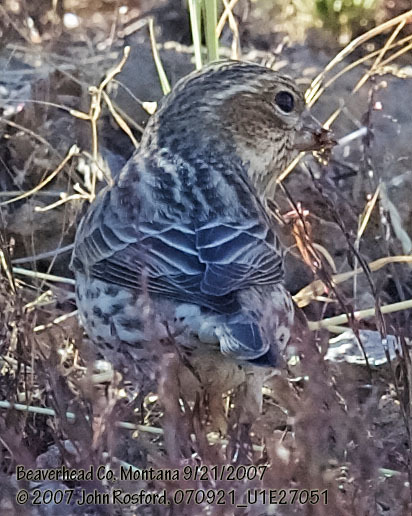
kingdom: Animalia
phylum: Chordata
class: Aves
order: Passeriformes
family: Fringillidae
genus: Haemorhous
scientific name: Haemorhous cassinii
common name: Cassin's finch
